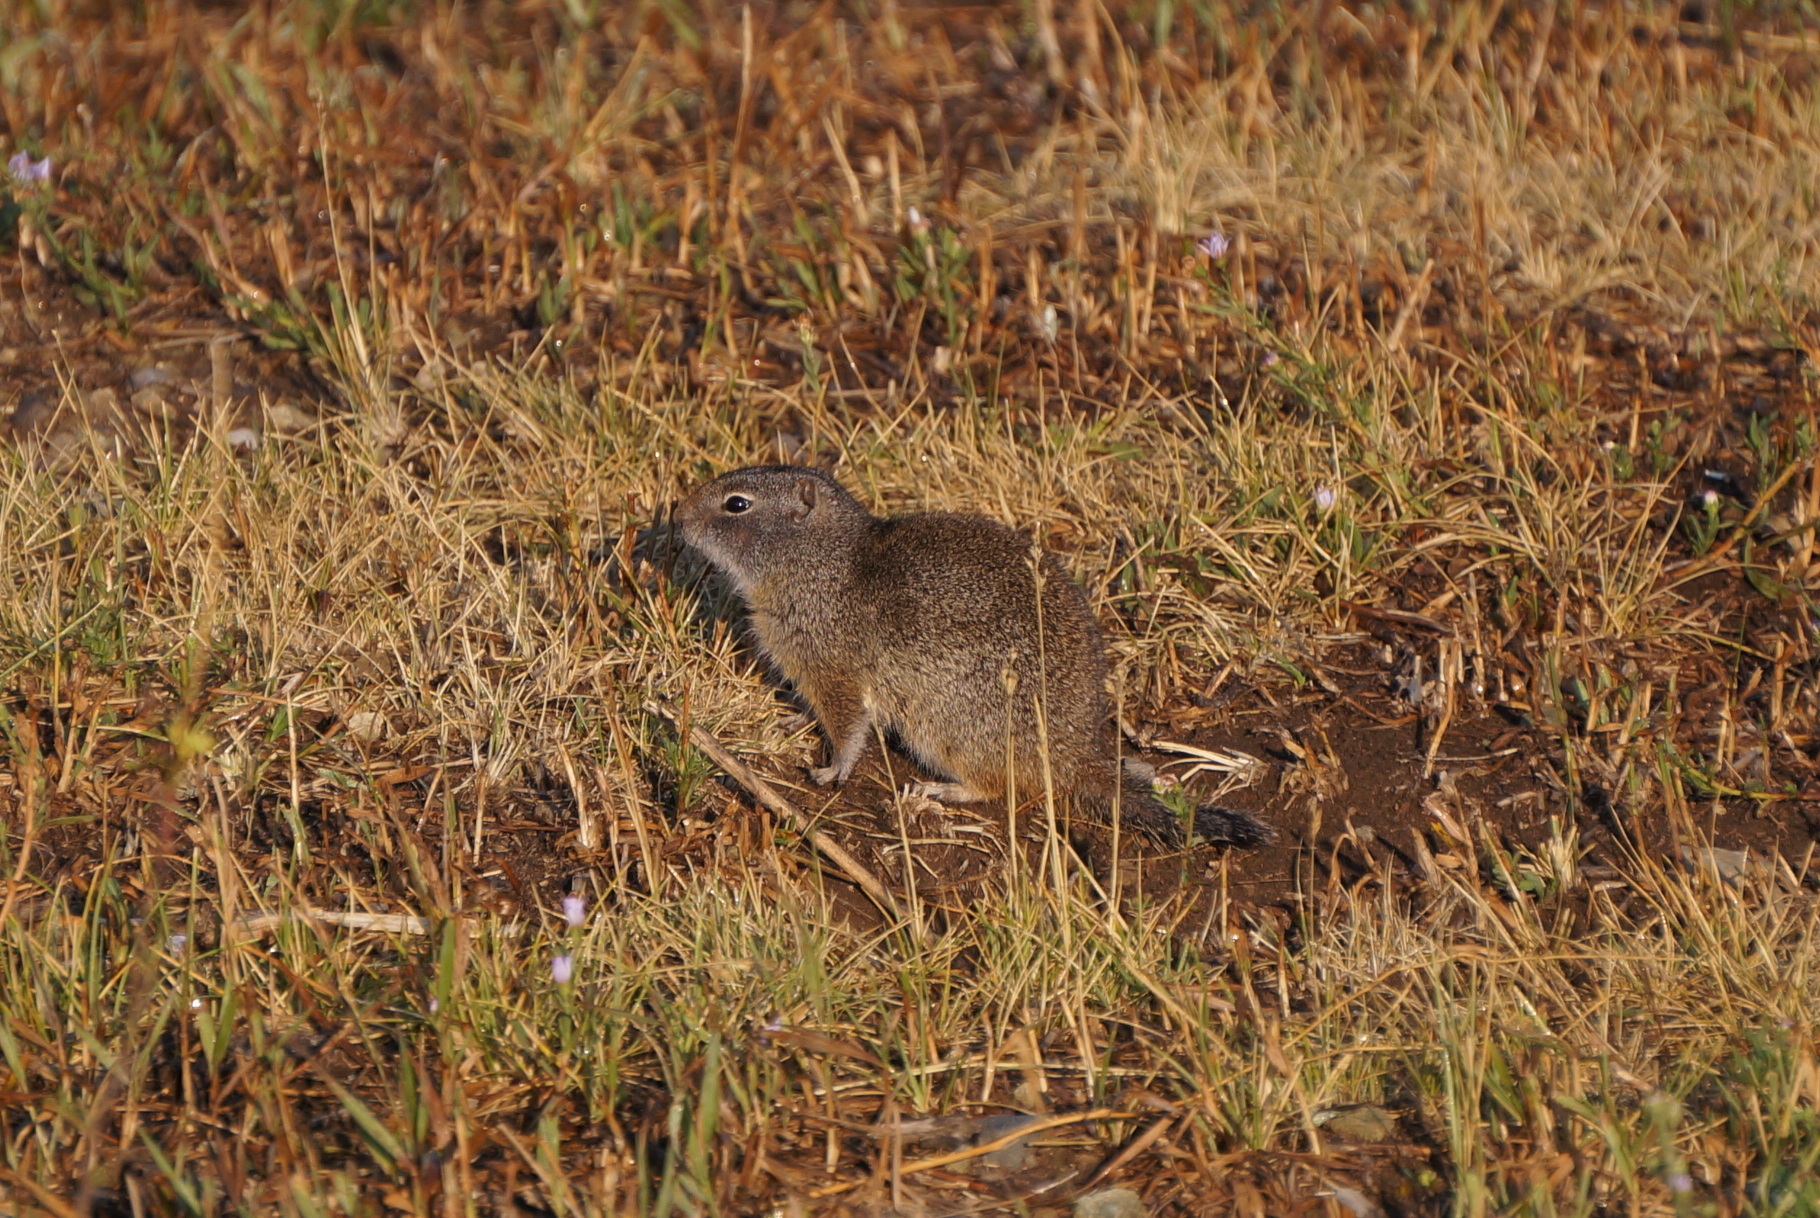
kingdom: Animalia
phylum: Chordata
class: Mammalia
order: Rodentia
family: Sciuridae
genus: Urocitellus
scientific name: Urocitellus armatus
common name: Uinta ground squirrel
